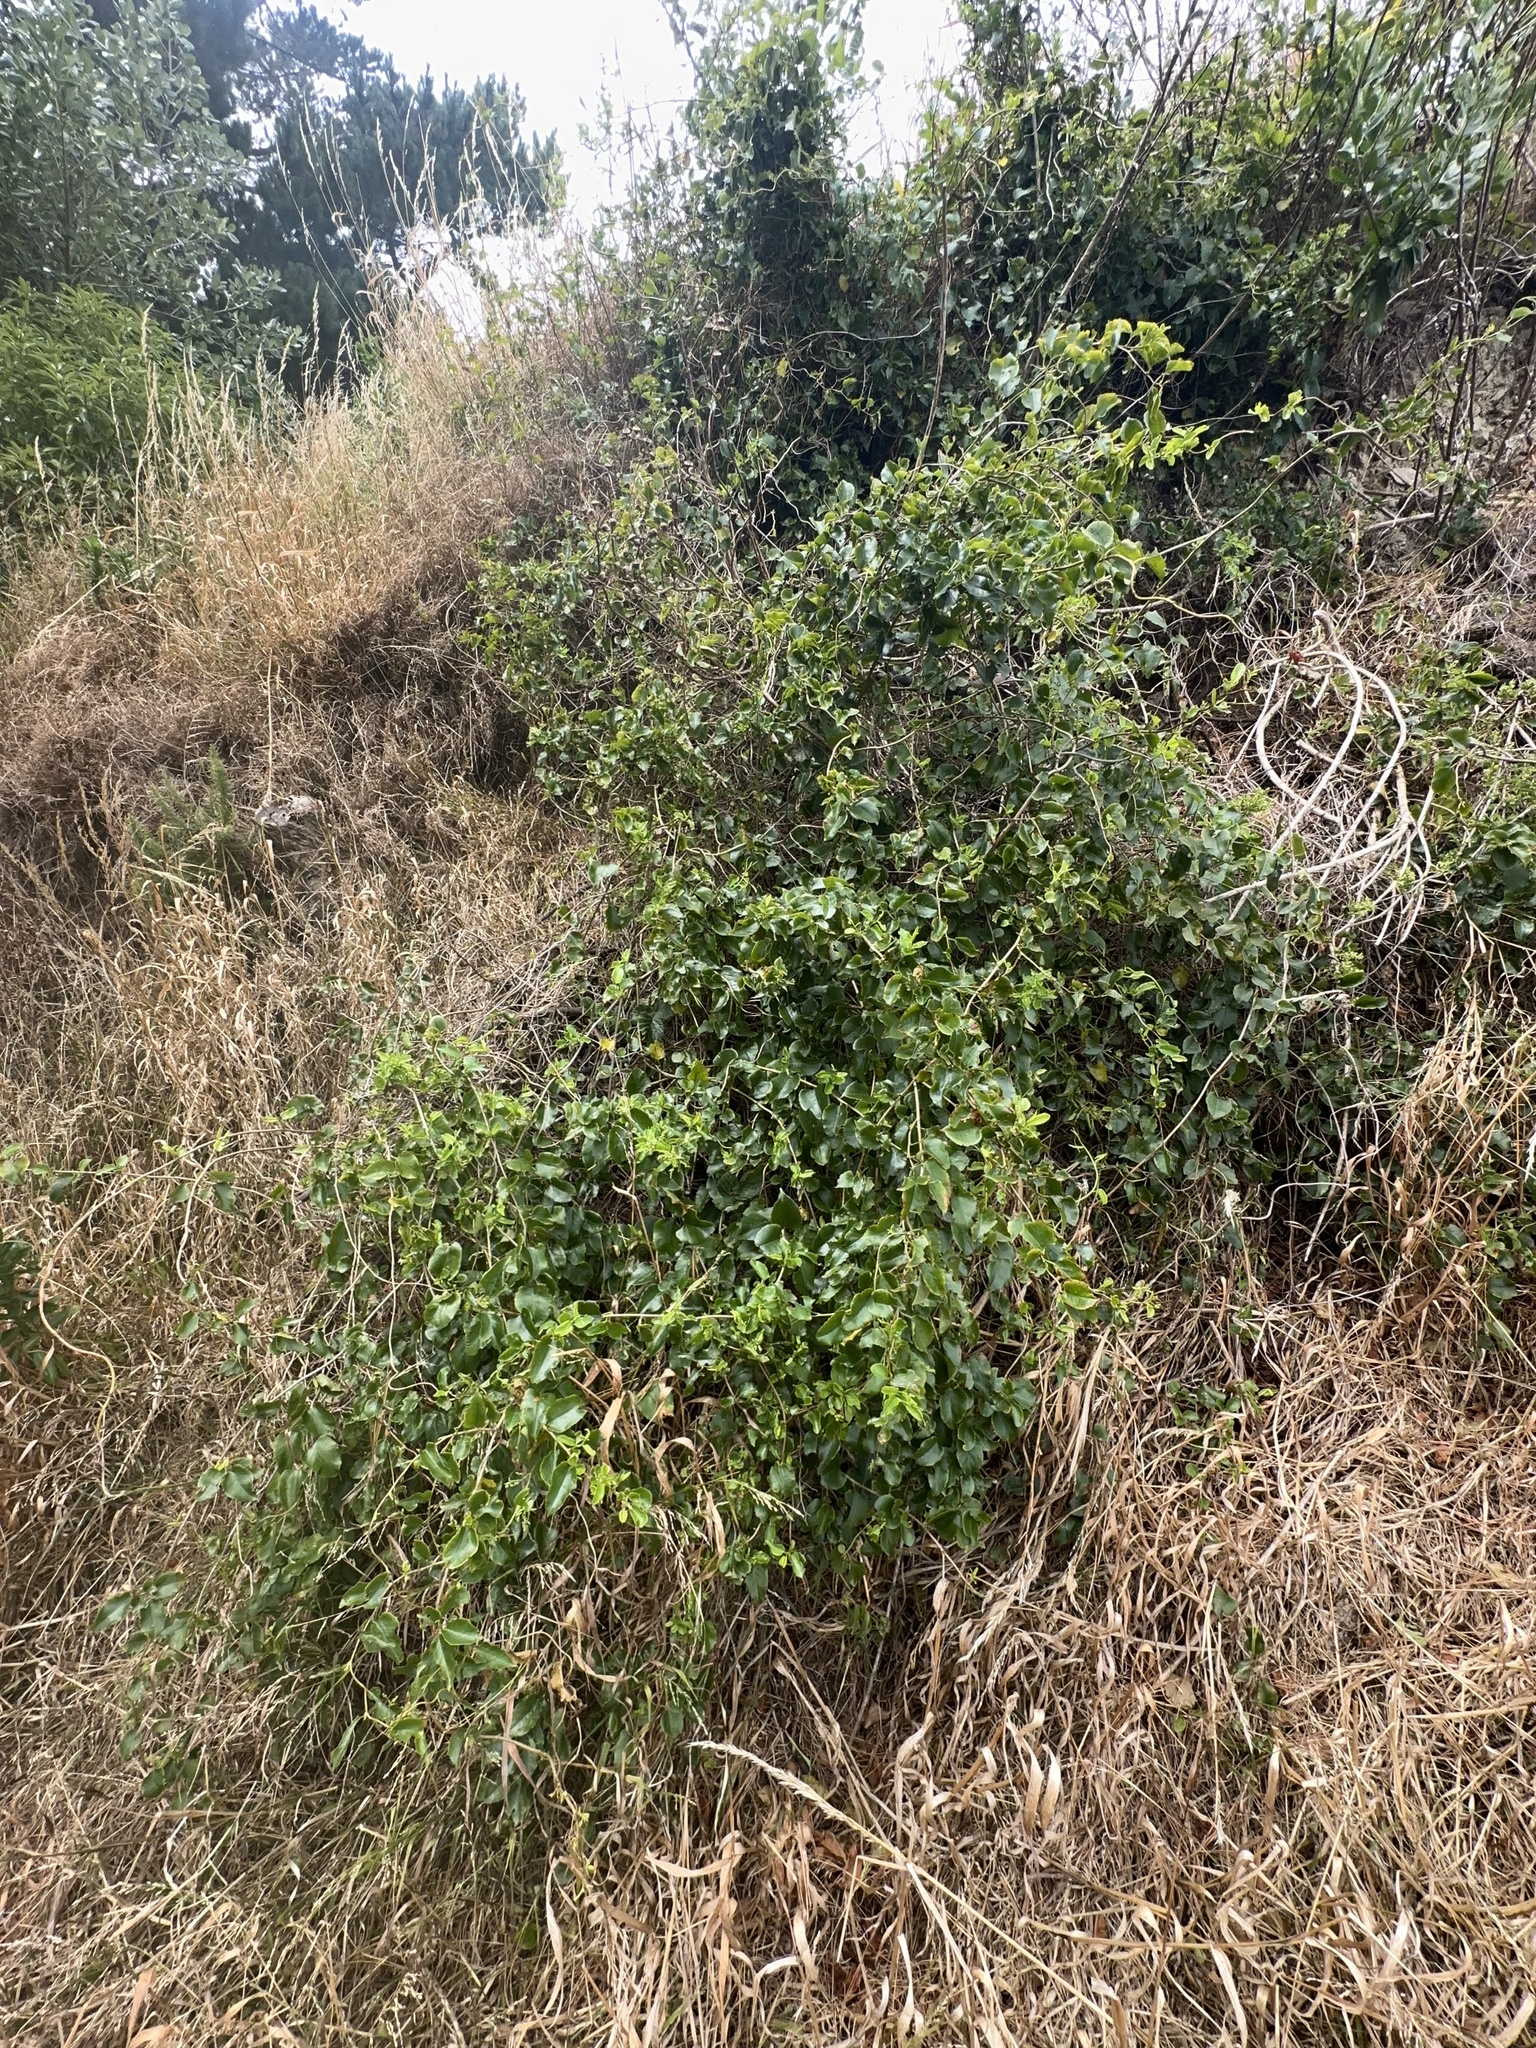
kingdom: Plantae
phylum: Tracheophyta
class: Magnoliopsida
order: Caryophyllales
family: Polygonaceae
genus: Muehlenbeckia
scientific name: Muehlenbeckia australis
